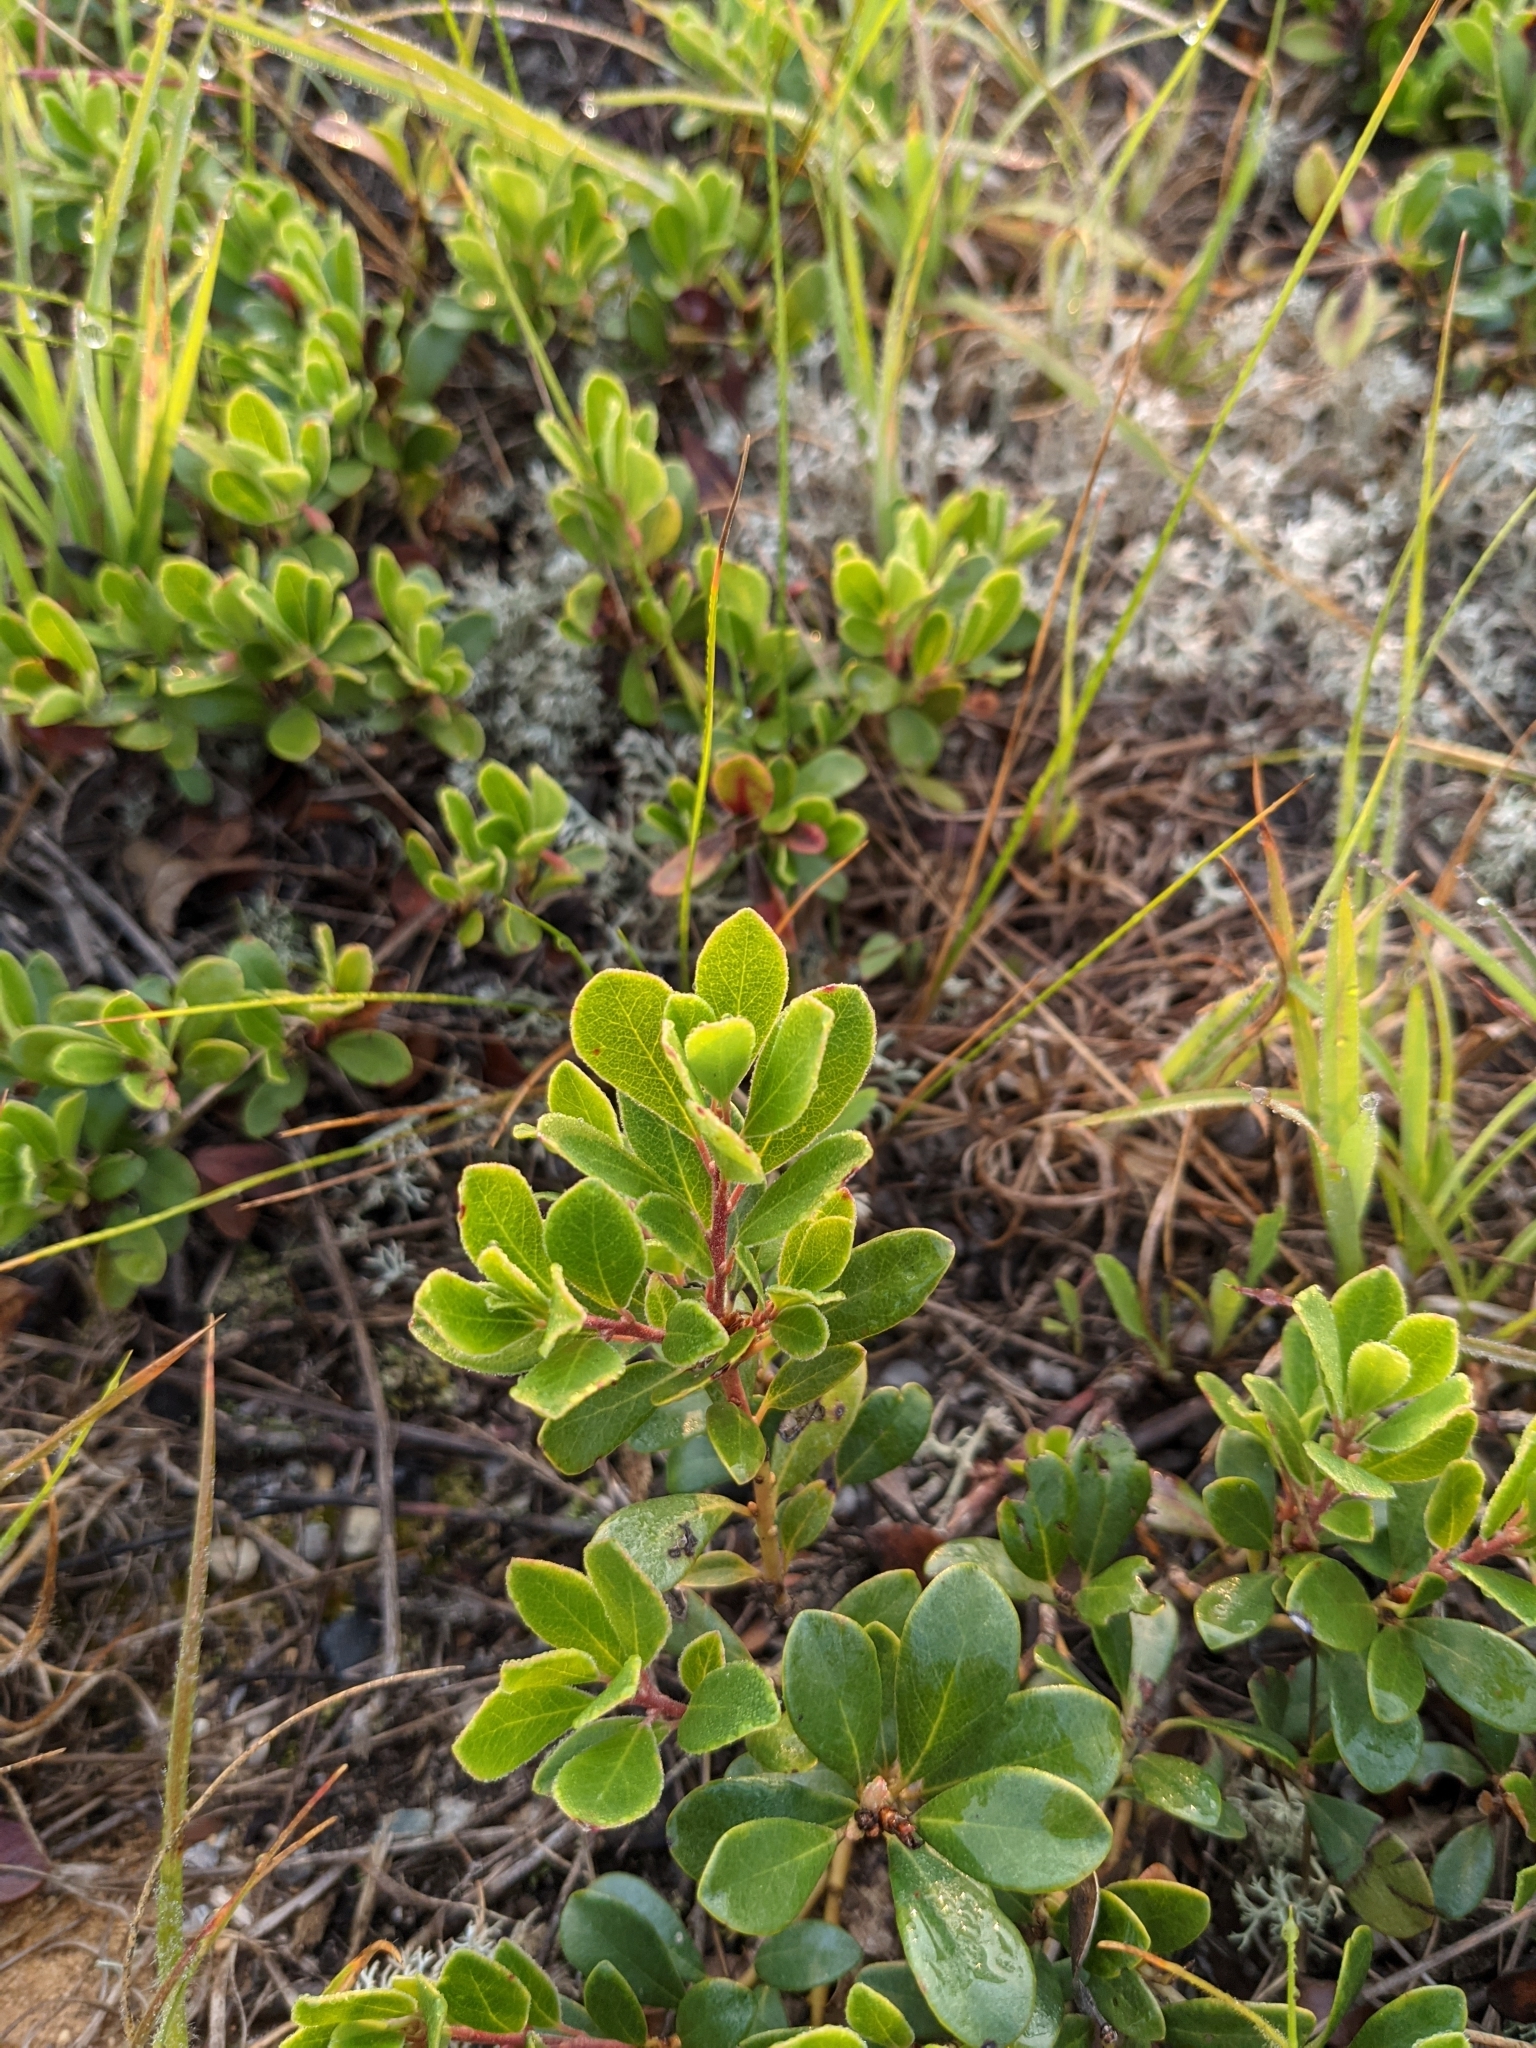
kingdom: Plantae
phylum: Tracheophyta
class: Magnoliopsida
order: Ericales
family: Ericaceae
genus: Arctostaphylos
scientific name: Arctostaphylos uva-ursi
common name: Bearberry
